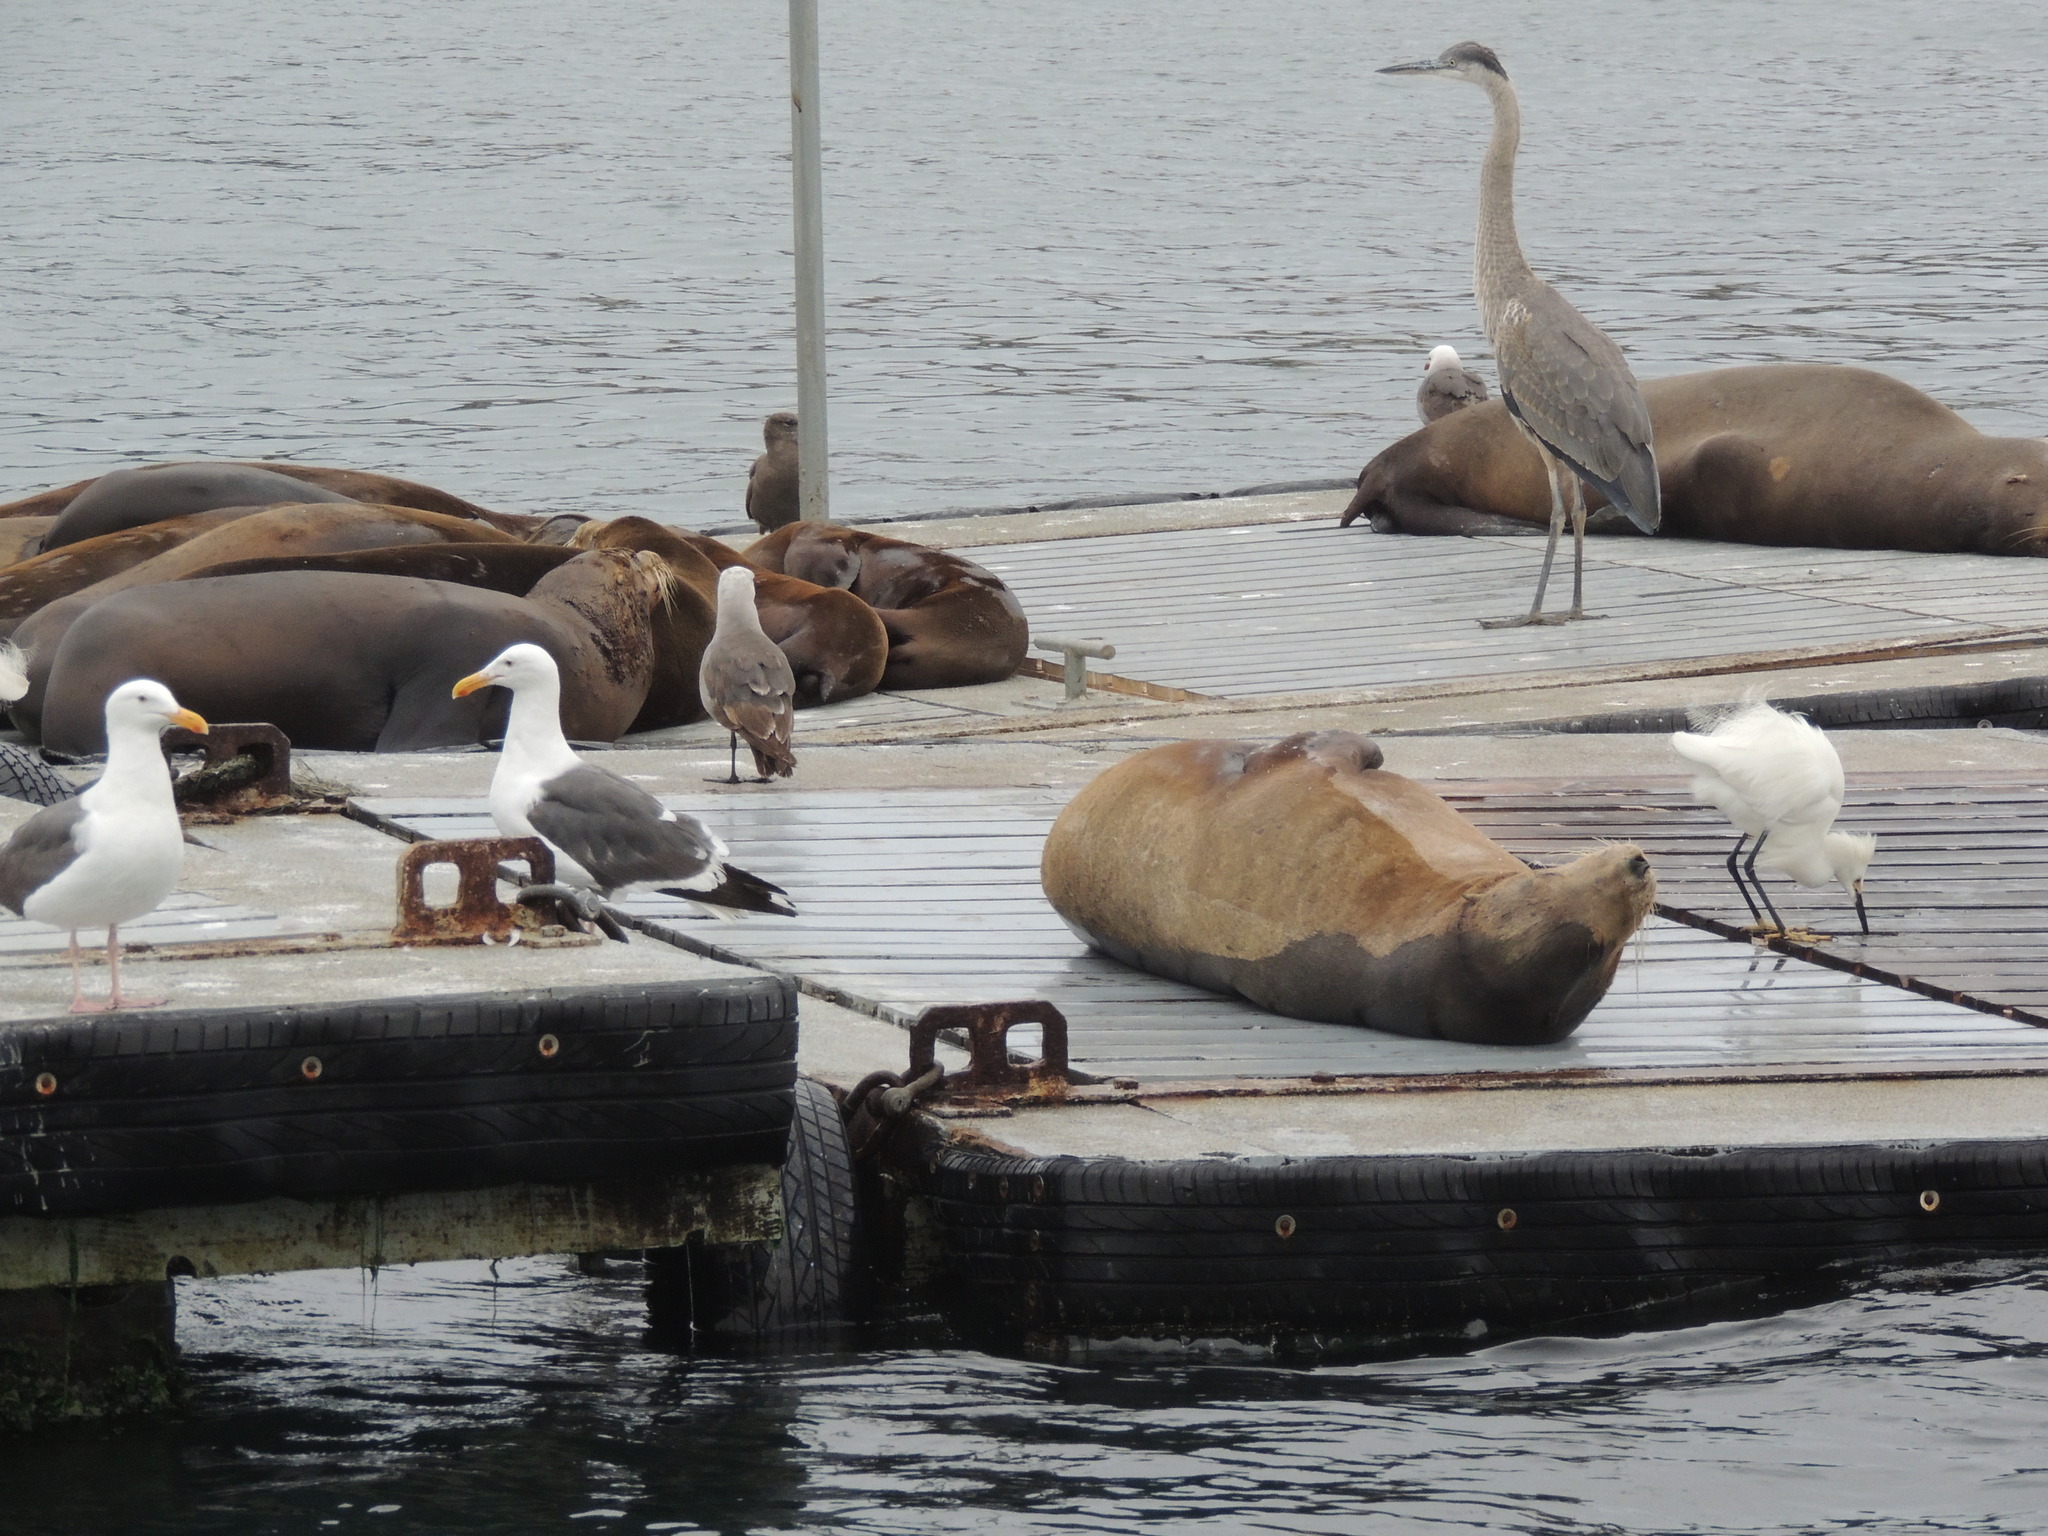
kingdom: Animalia
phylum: Chordata
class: Aves
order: Pelecaniformes
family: Ardeidae
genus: Egretta
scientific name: Egretta thula
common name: Snowy egret
